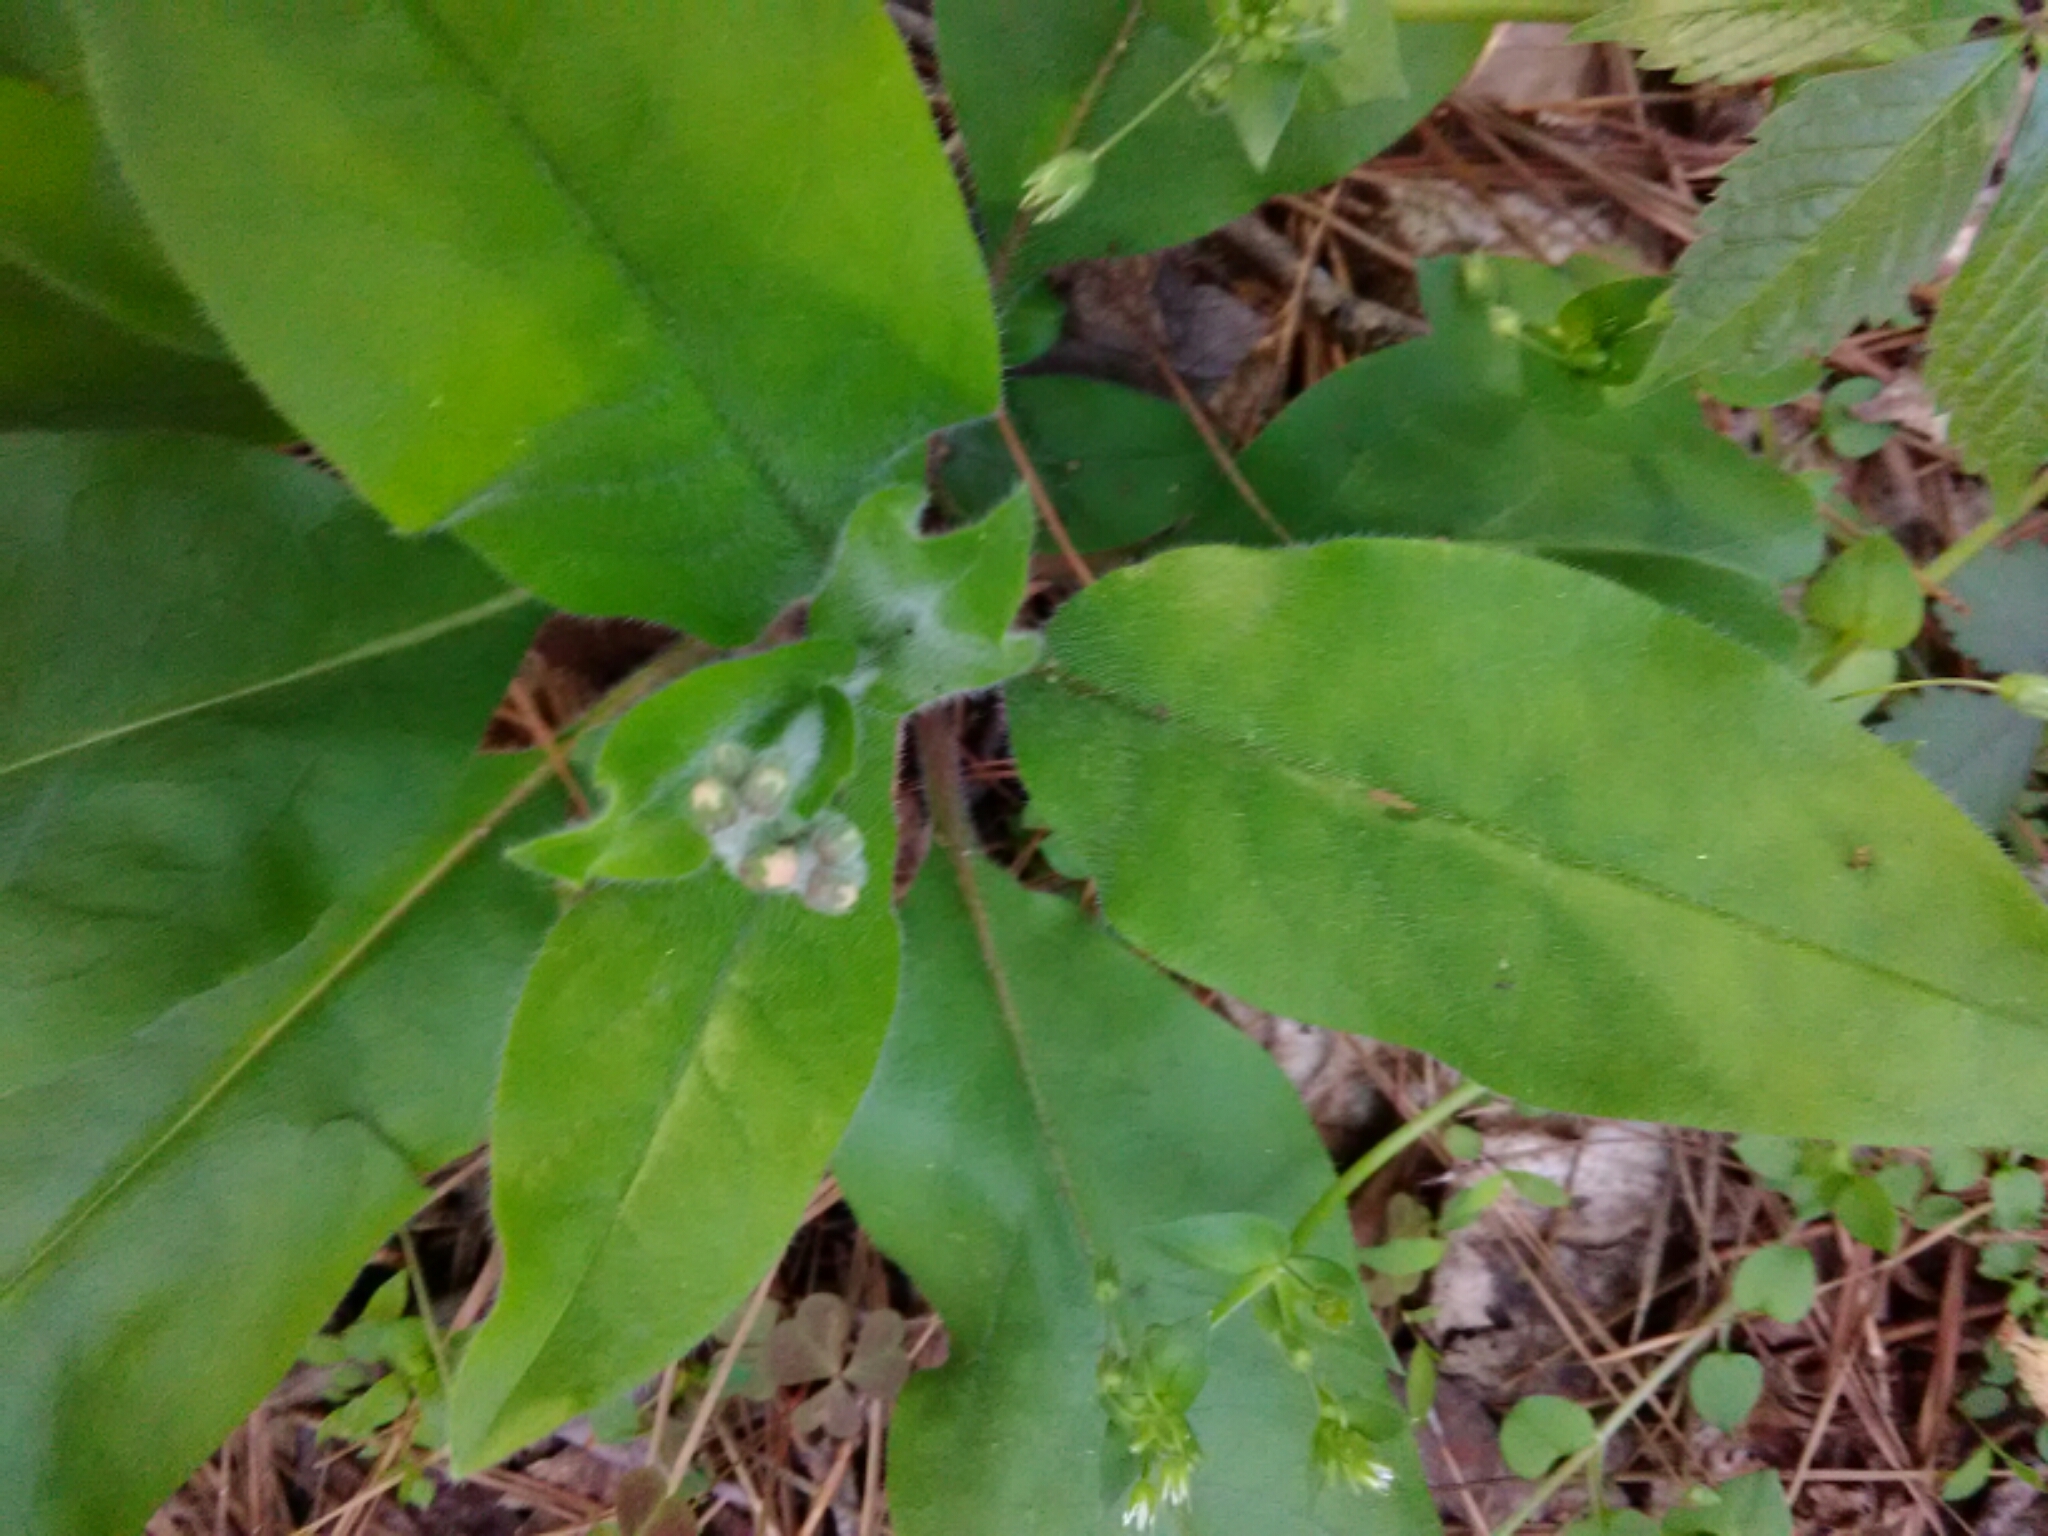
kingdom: Plantae
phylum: Tracheophyta
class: Magnoliopsida
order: Boraginales
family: Boraginaceae
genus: Andersonglossum
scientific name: Andersonglossum virginianum
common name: Wild comfrey
